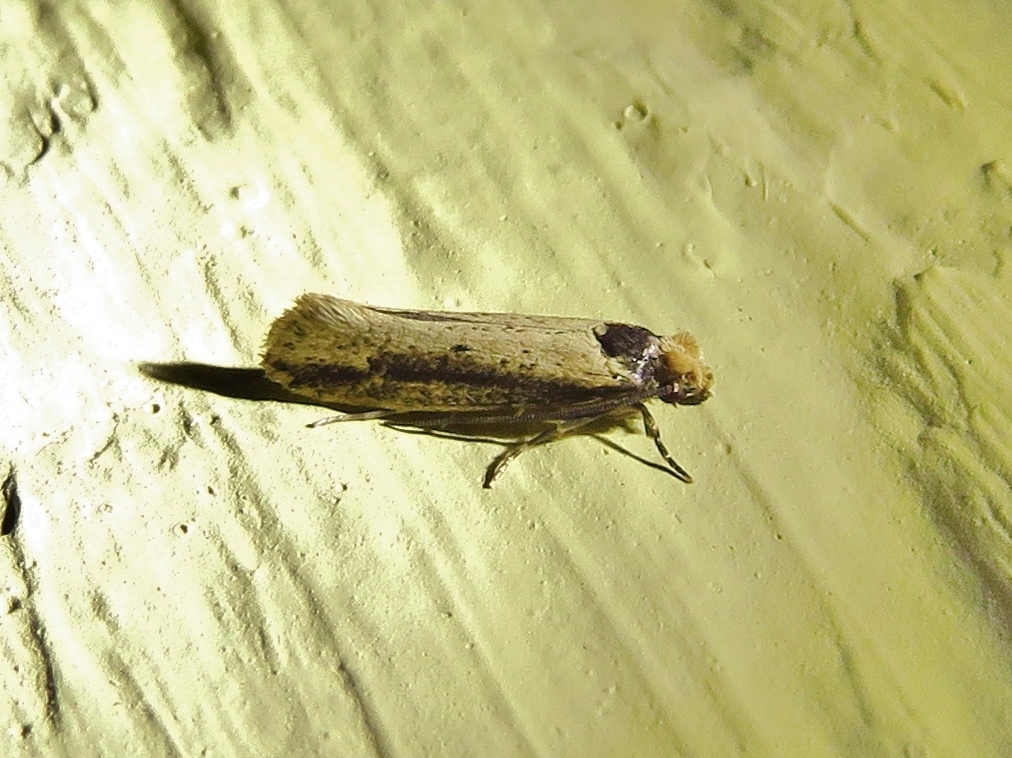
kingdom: Animalia
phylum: Arthropoda
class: Insecta
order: Lepidoptera
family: Tineidae
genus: Tinea
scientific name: Tinea apicimaculella
